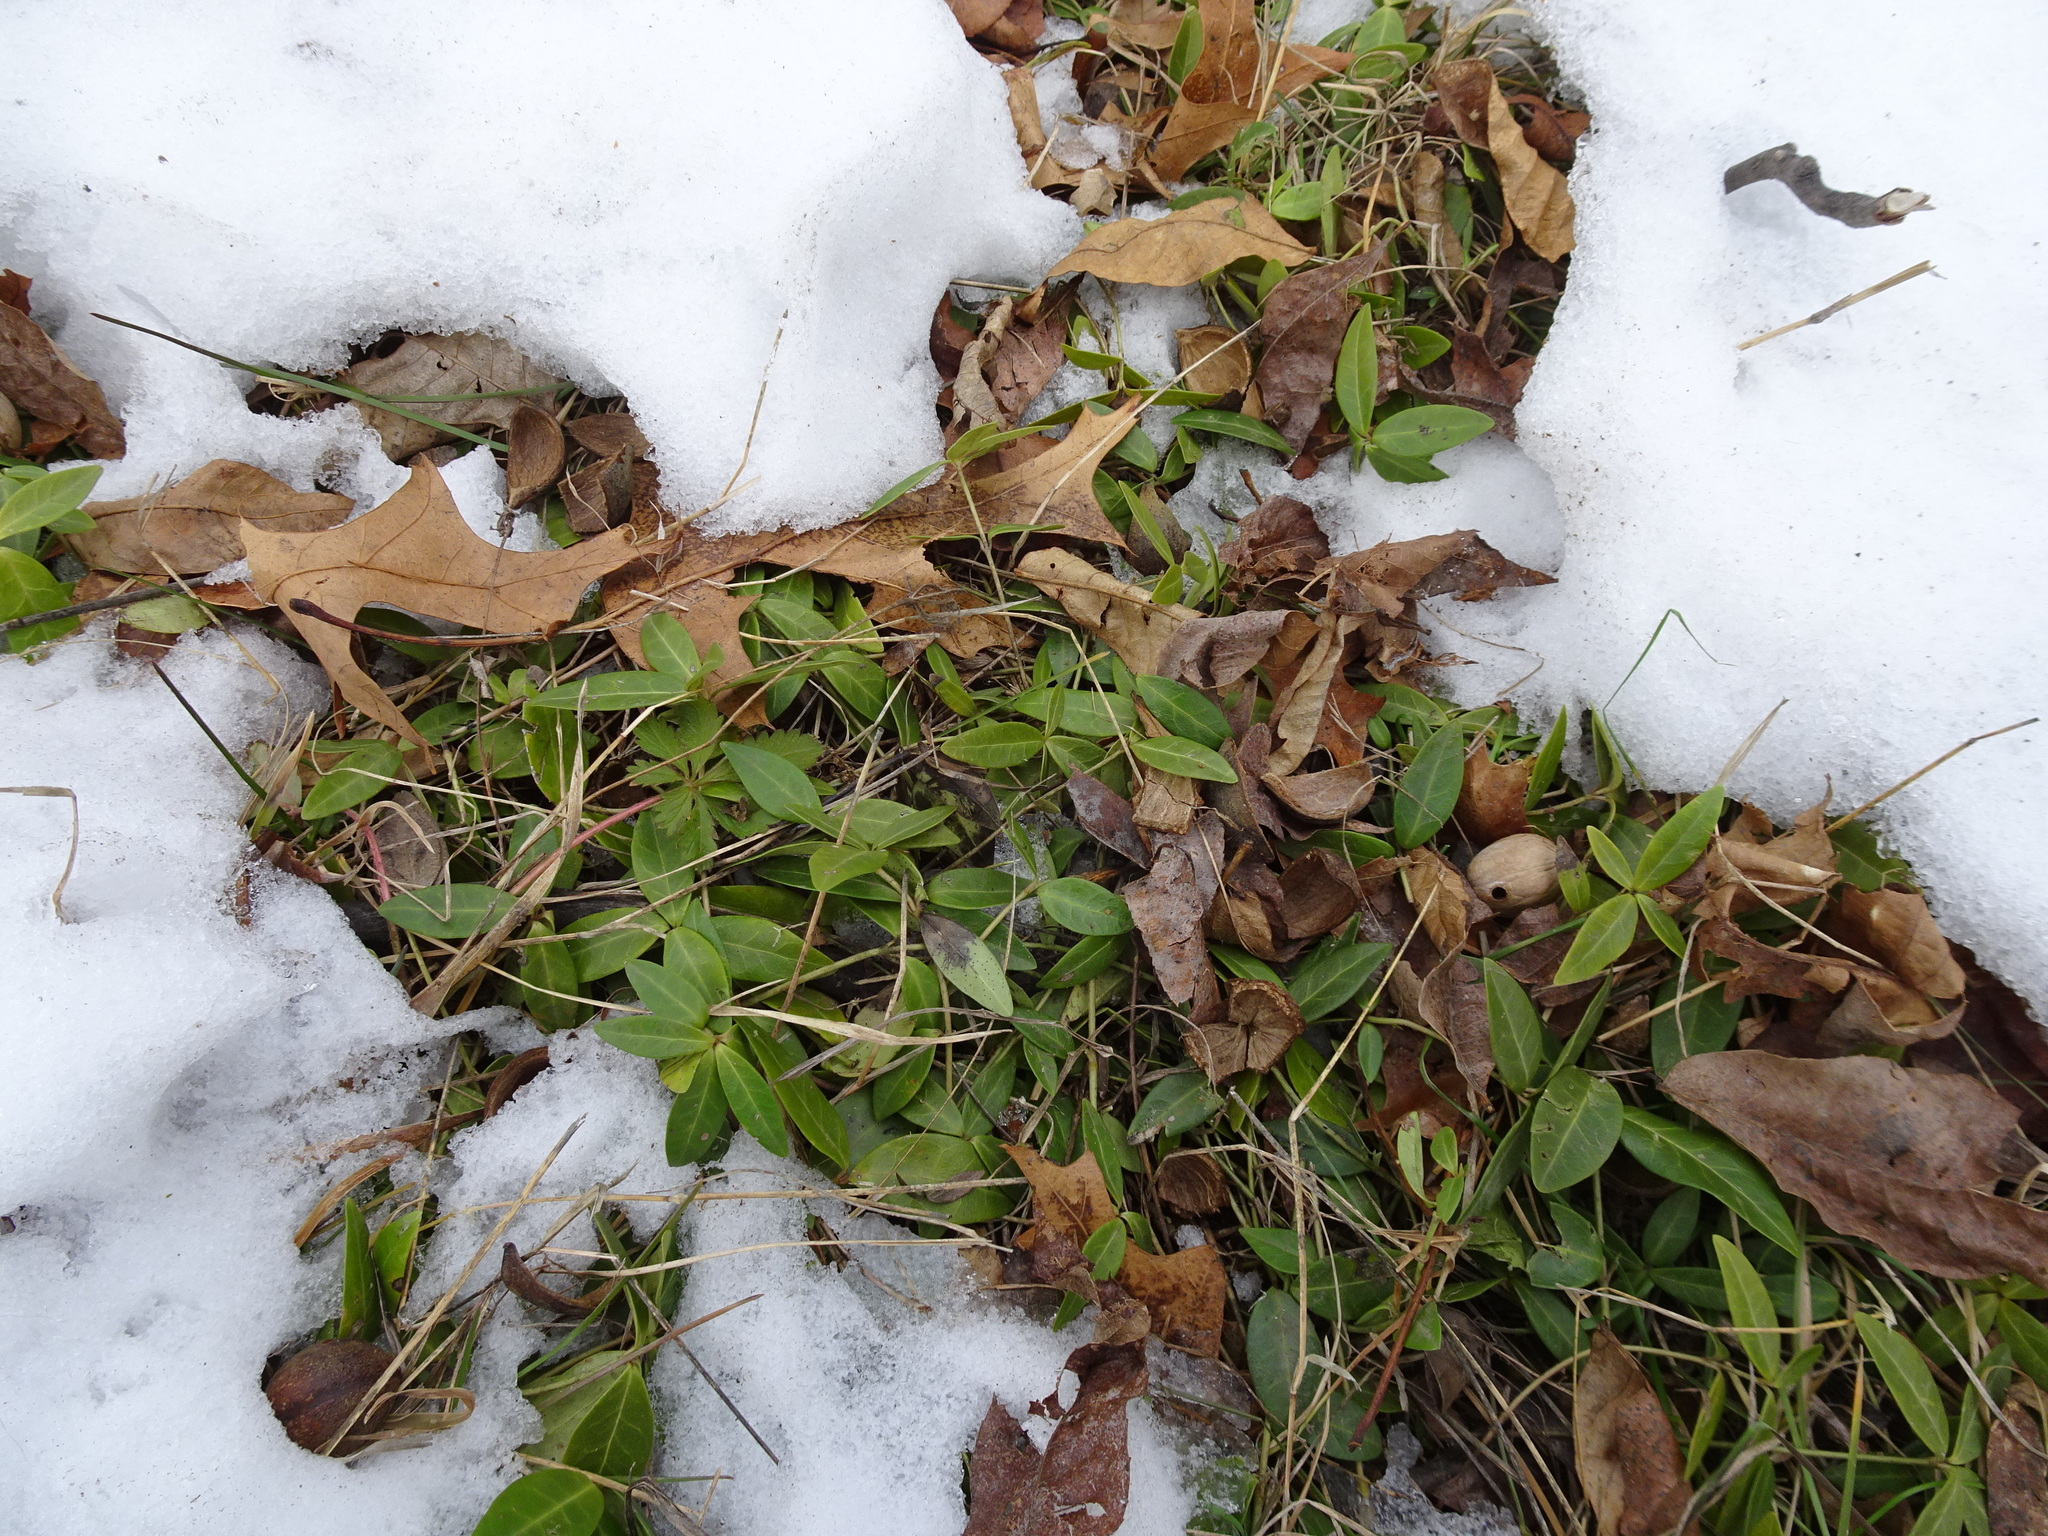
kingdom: Plantae
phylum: Tracheophyta
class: Magnoliopsida
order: Gentianales
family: Apocynaceae
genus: Vinca
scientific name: Vinca minor
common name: Lesser periwinkle
